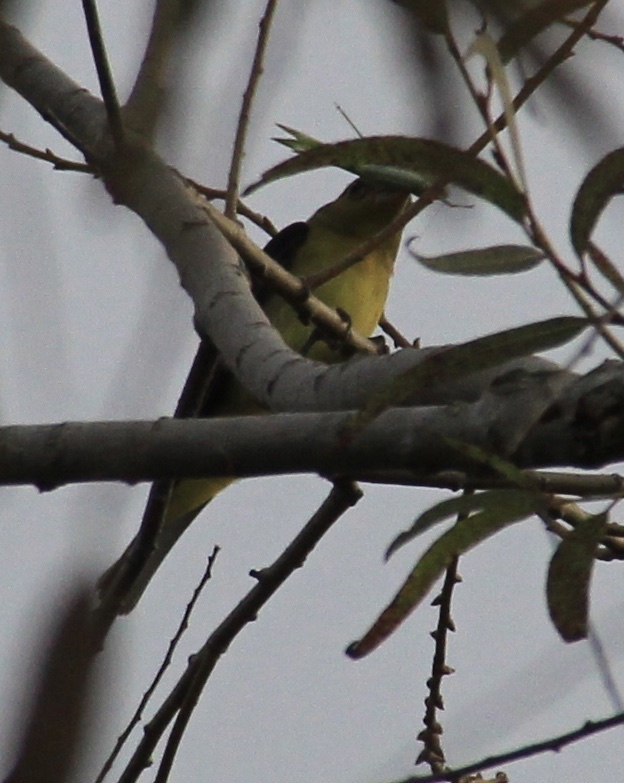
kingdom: Animalia
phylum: Chordata
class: Aves
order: Passeriformes
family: Cardinalidae
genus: Piranga
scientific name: Piranga olivacea
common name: Scarlet tanager
